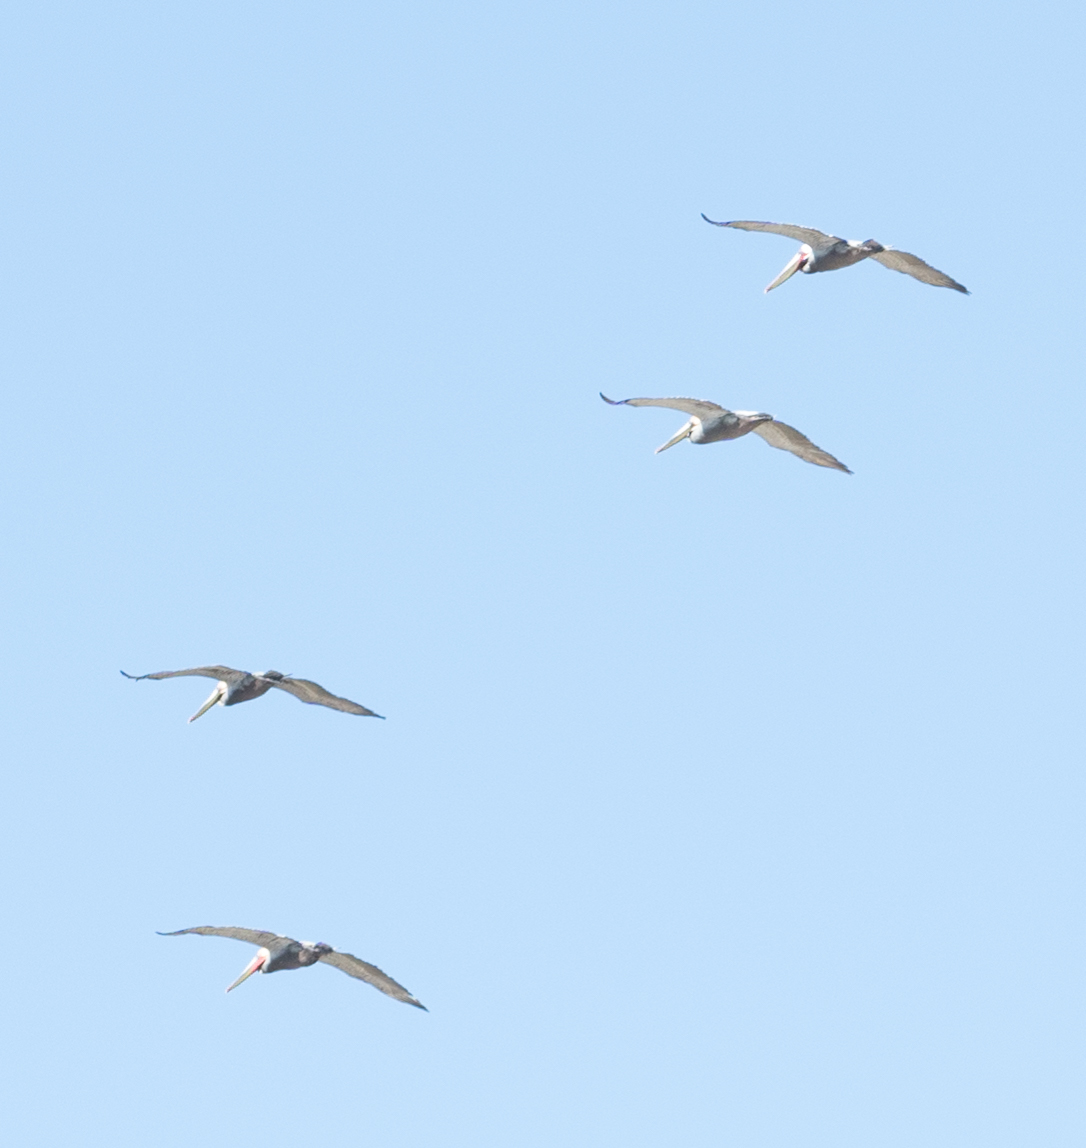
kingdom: Animalia
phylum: Chordata
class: Aves
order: Pelecaniformes
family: Pelecanidae
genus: Pelecanus
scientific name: Pelecanus occidentalis
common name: Brown pelican
